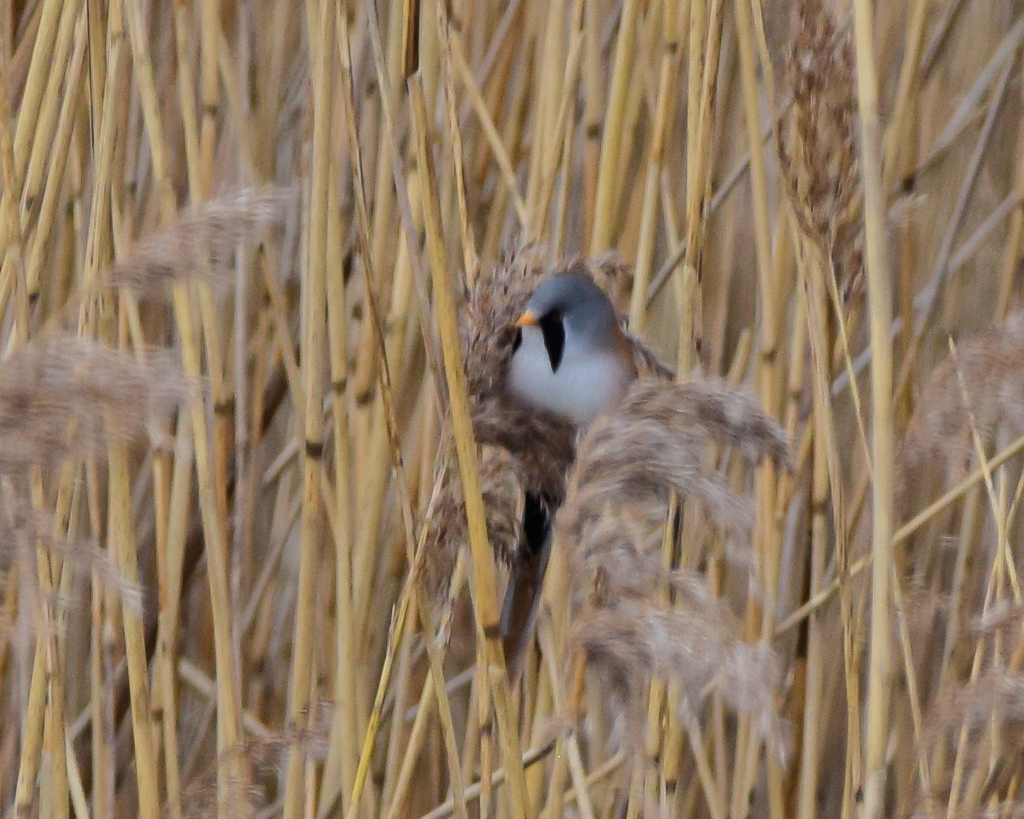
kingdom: Animalia
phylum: Chordata
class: Aves
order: Passeriformes
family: Panuridae
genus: Panurus
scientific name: Panurus biarmicus
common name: Bearded reedling
